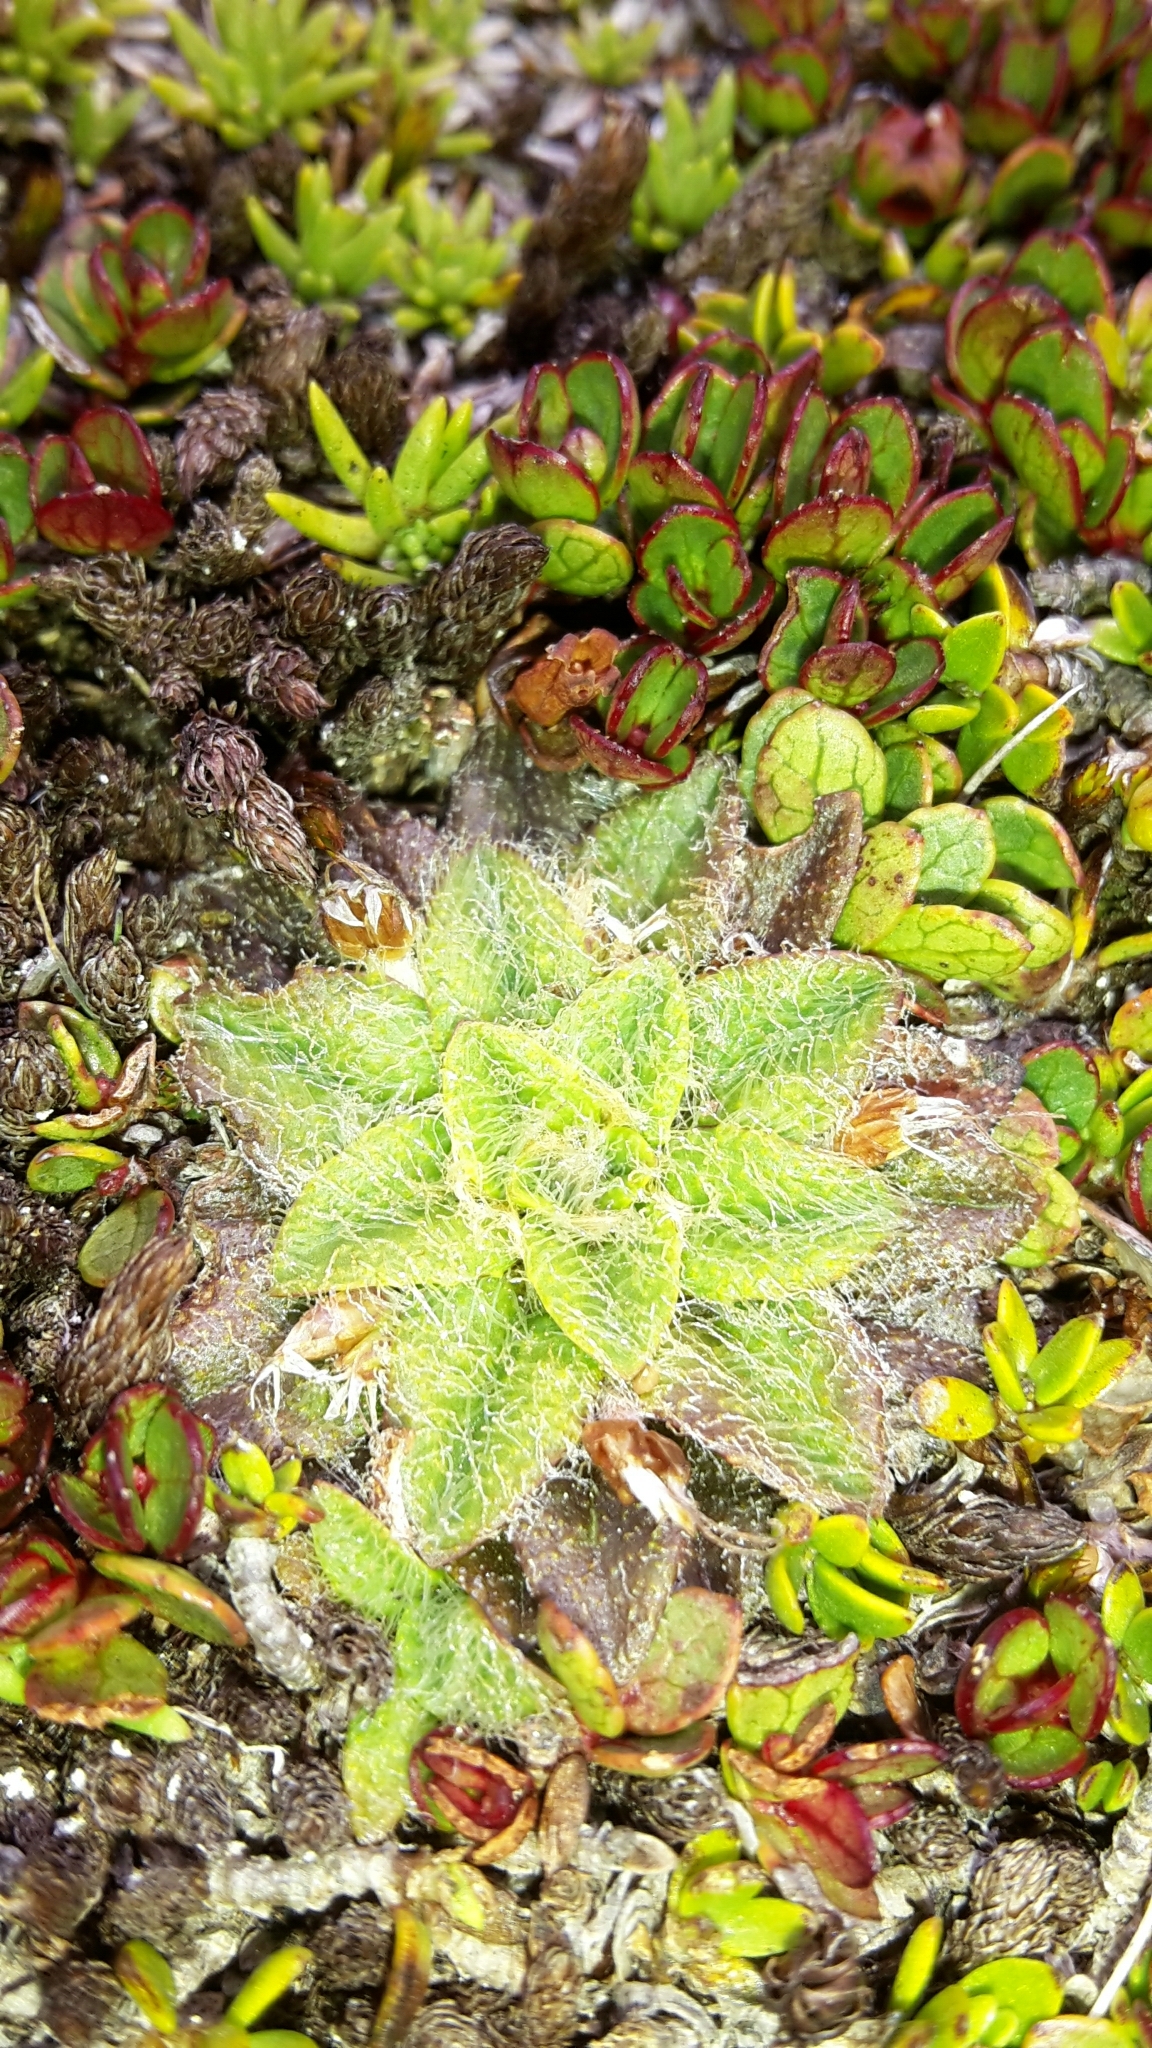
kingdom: Plantae
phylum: Tracheophyta
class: Magnoliopsida
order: Lamiales
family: Plantaginaceae
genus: Plantago
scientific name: Plantago lanigera
